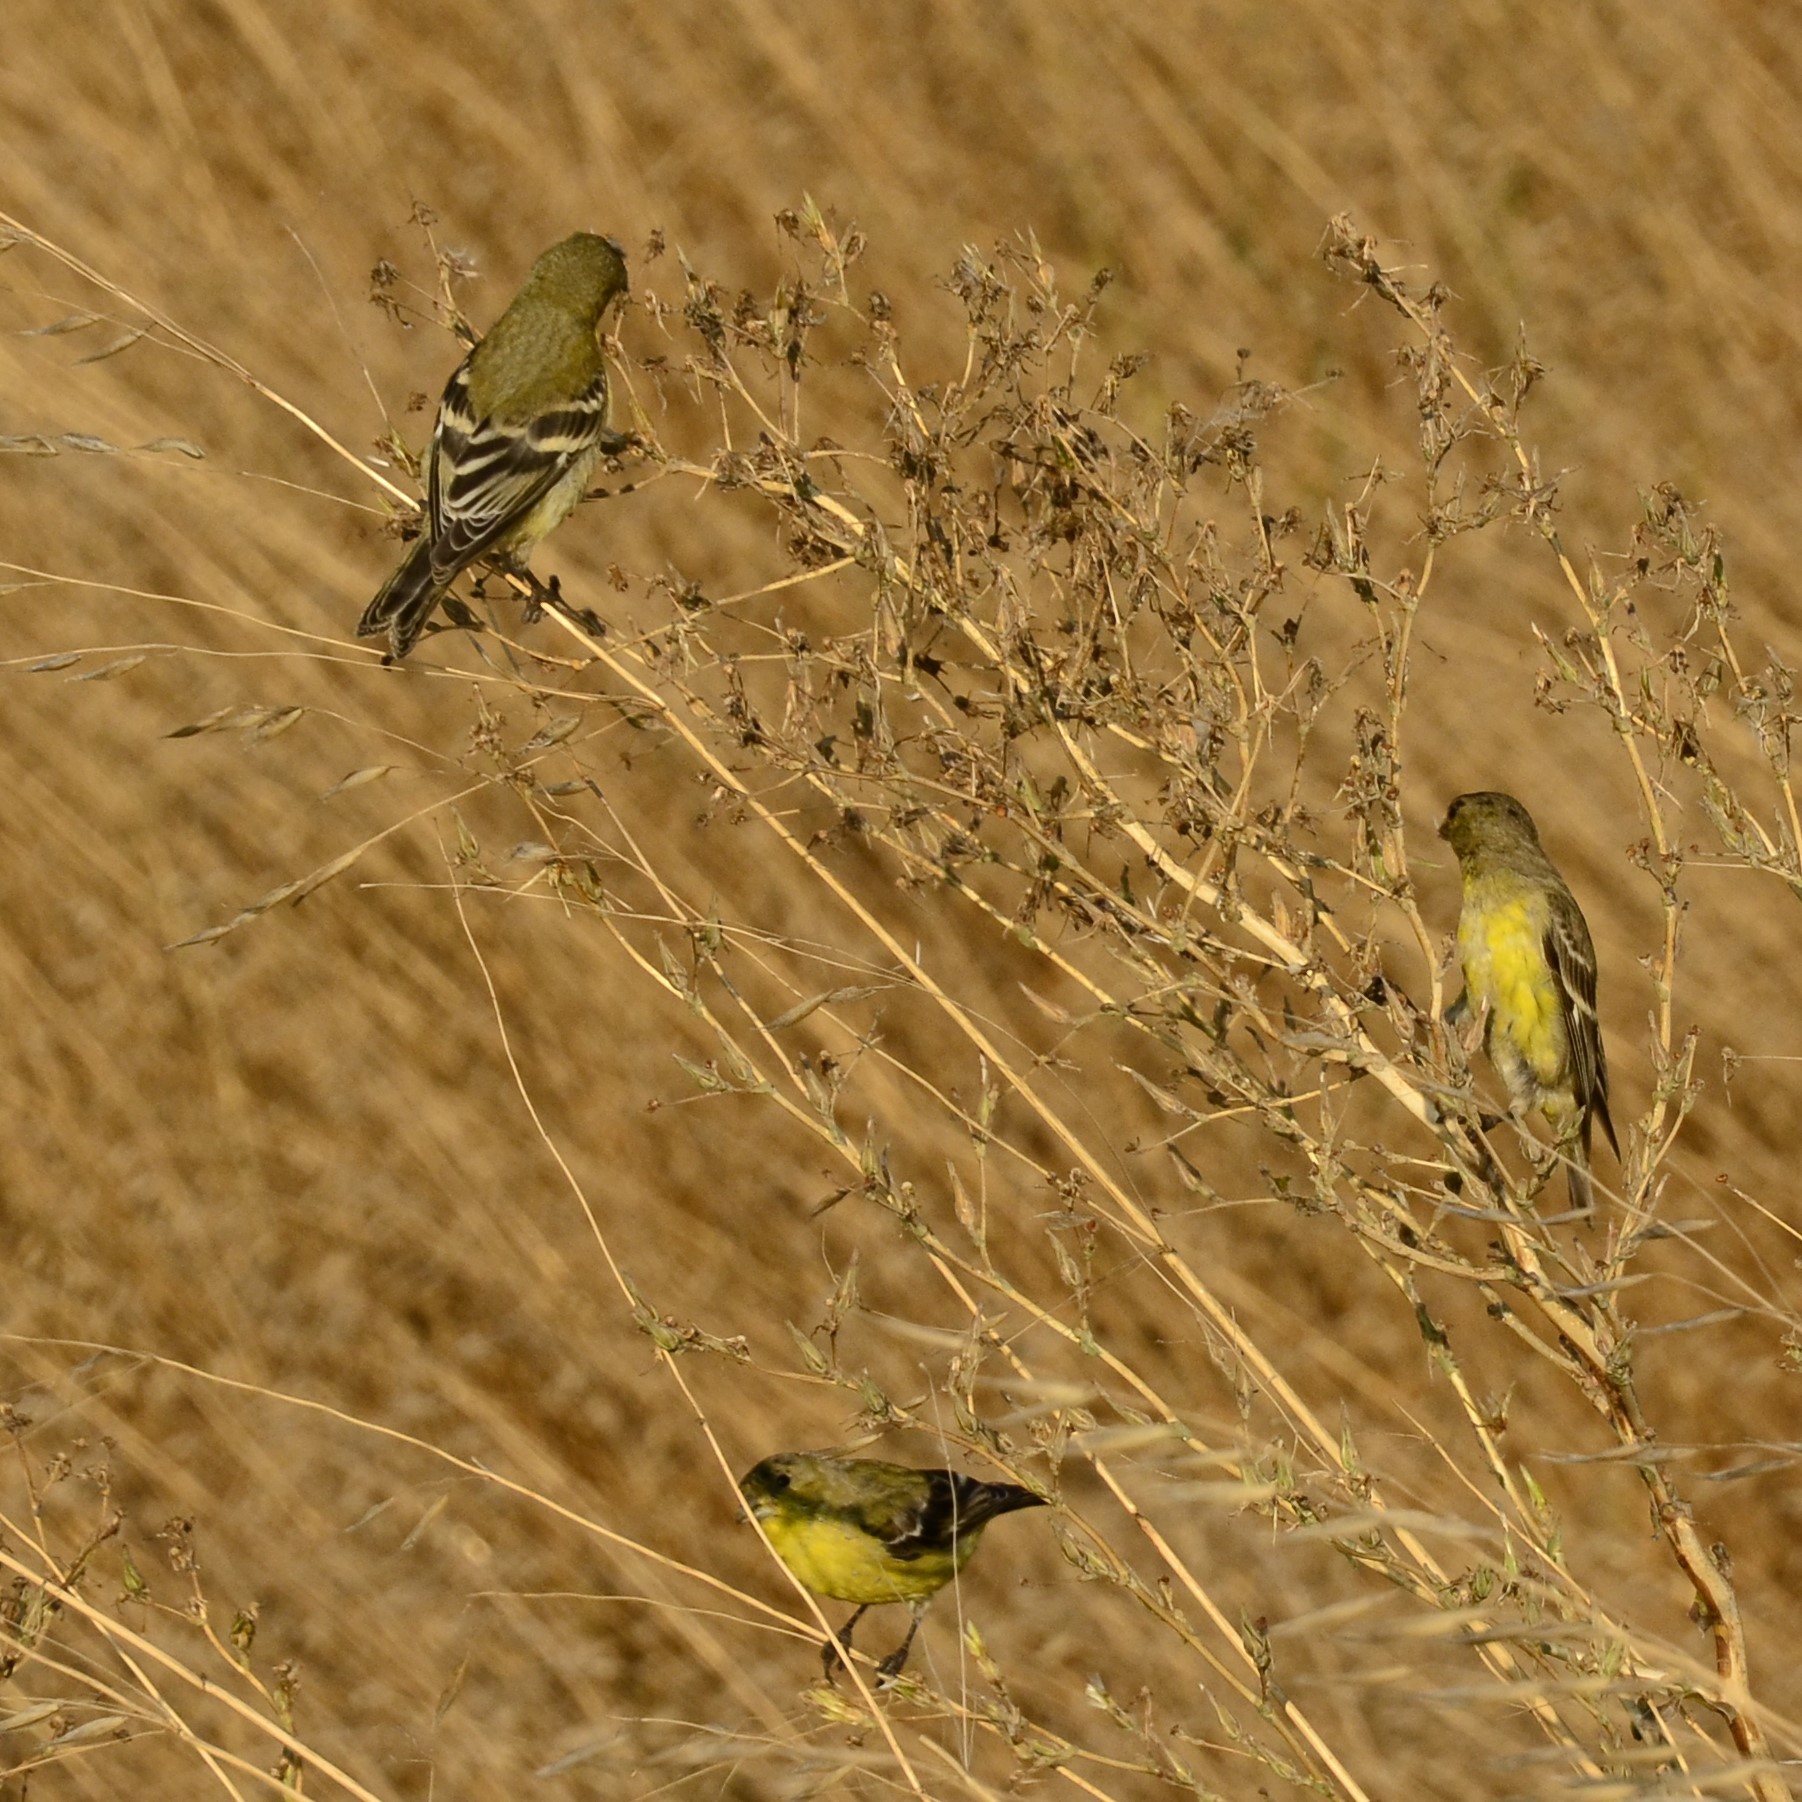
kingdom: Animalia
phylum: Chordata
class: Aves
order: Passeriformes
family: Fringillidae
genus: Spinus
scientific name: Spinus psaltria
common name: Lesser goldfinch
